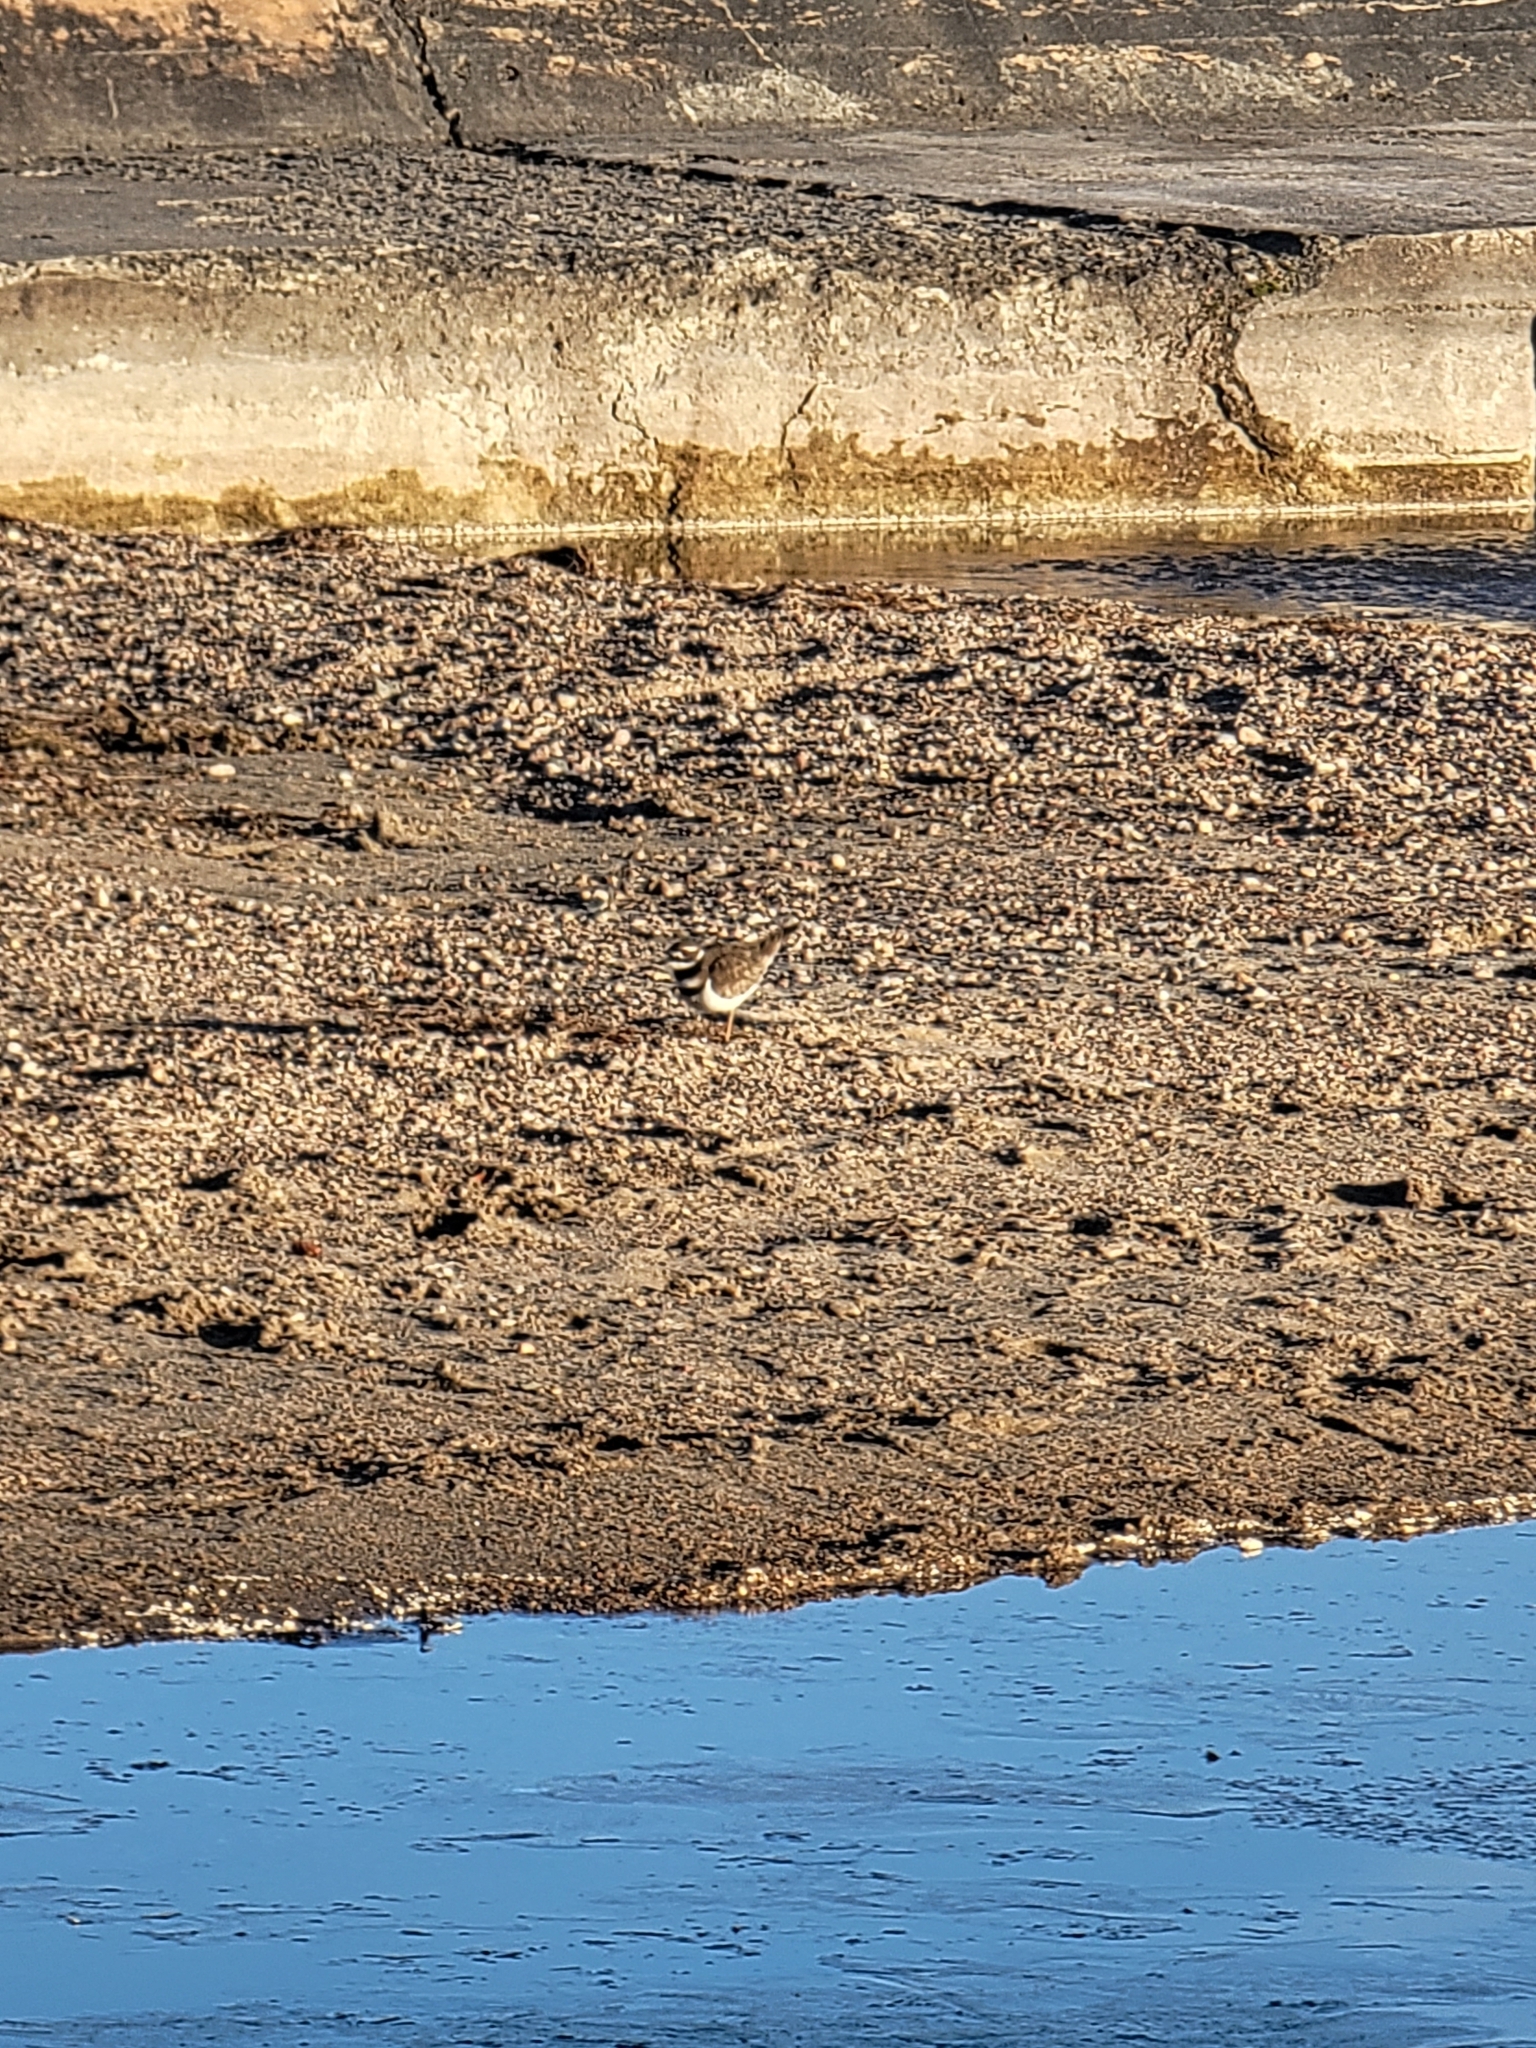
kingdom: Animalia
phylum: Chordata
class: Aves
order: Charadriiformes
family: Charadriidae
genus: Charadrius
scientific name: Charadrius vociferus
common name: Killdeer
